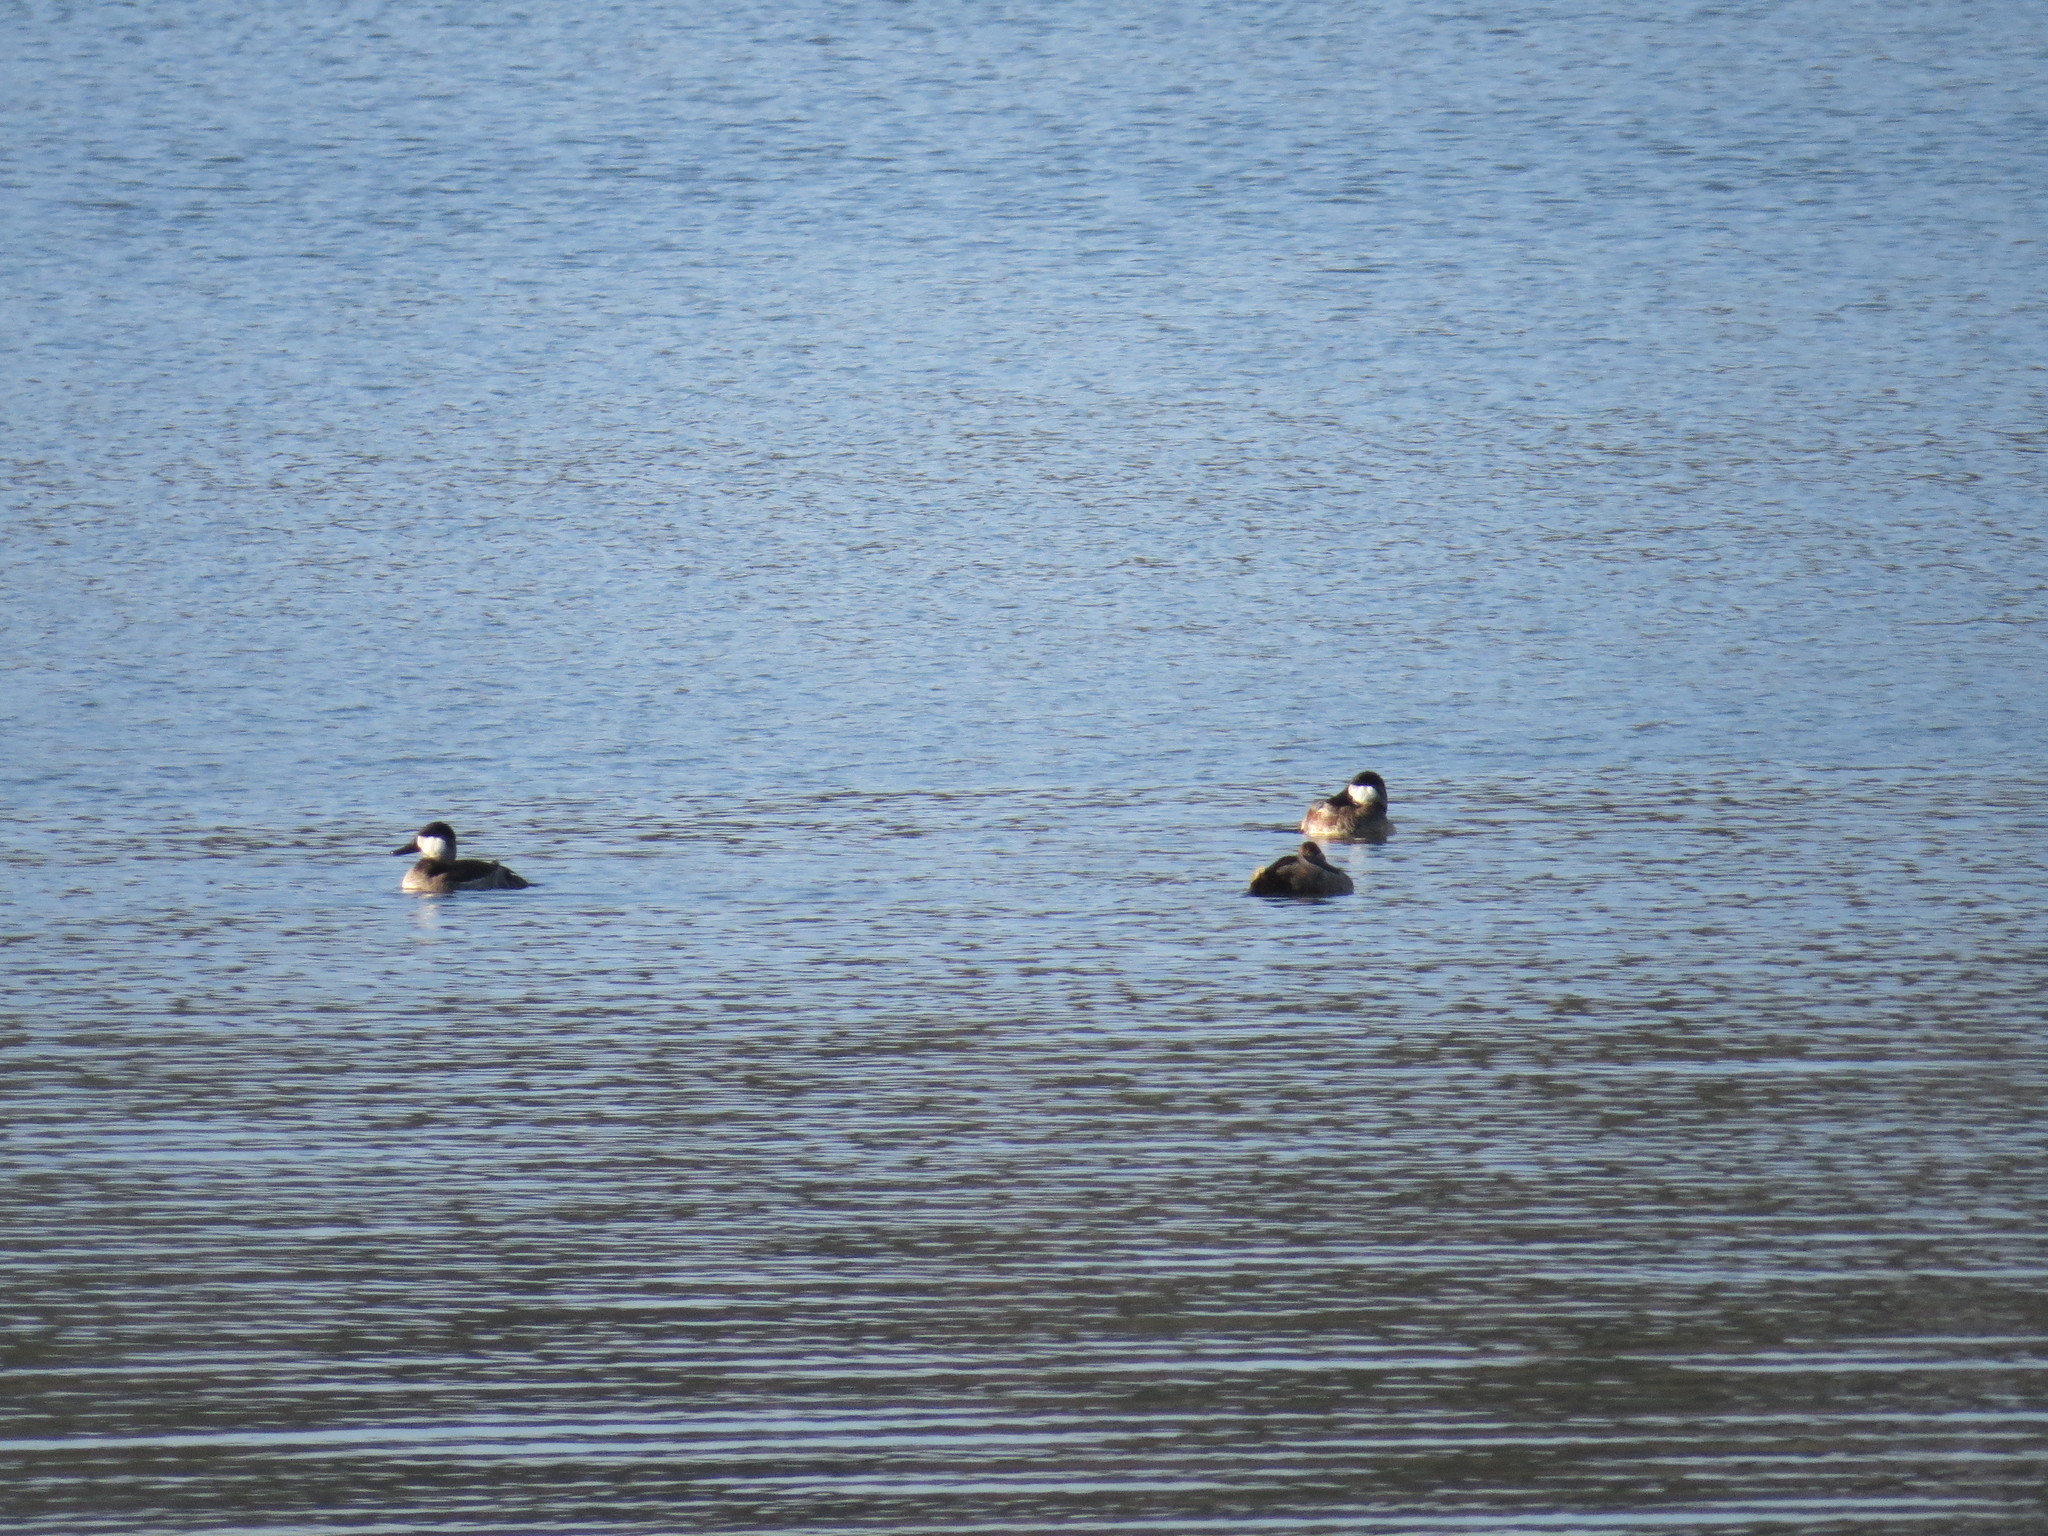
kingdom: Animalia
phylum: Chordata
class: Aves
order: Anseriformes
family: Anatidae
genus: Oxyura
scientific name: Oxyura jamaicensis
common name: Ruddy duck
